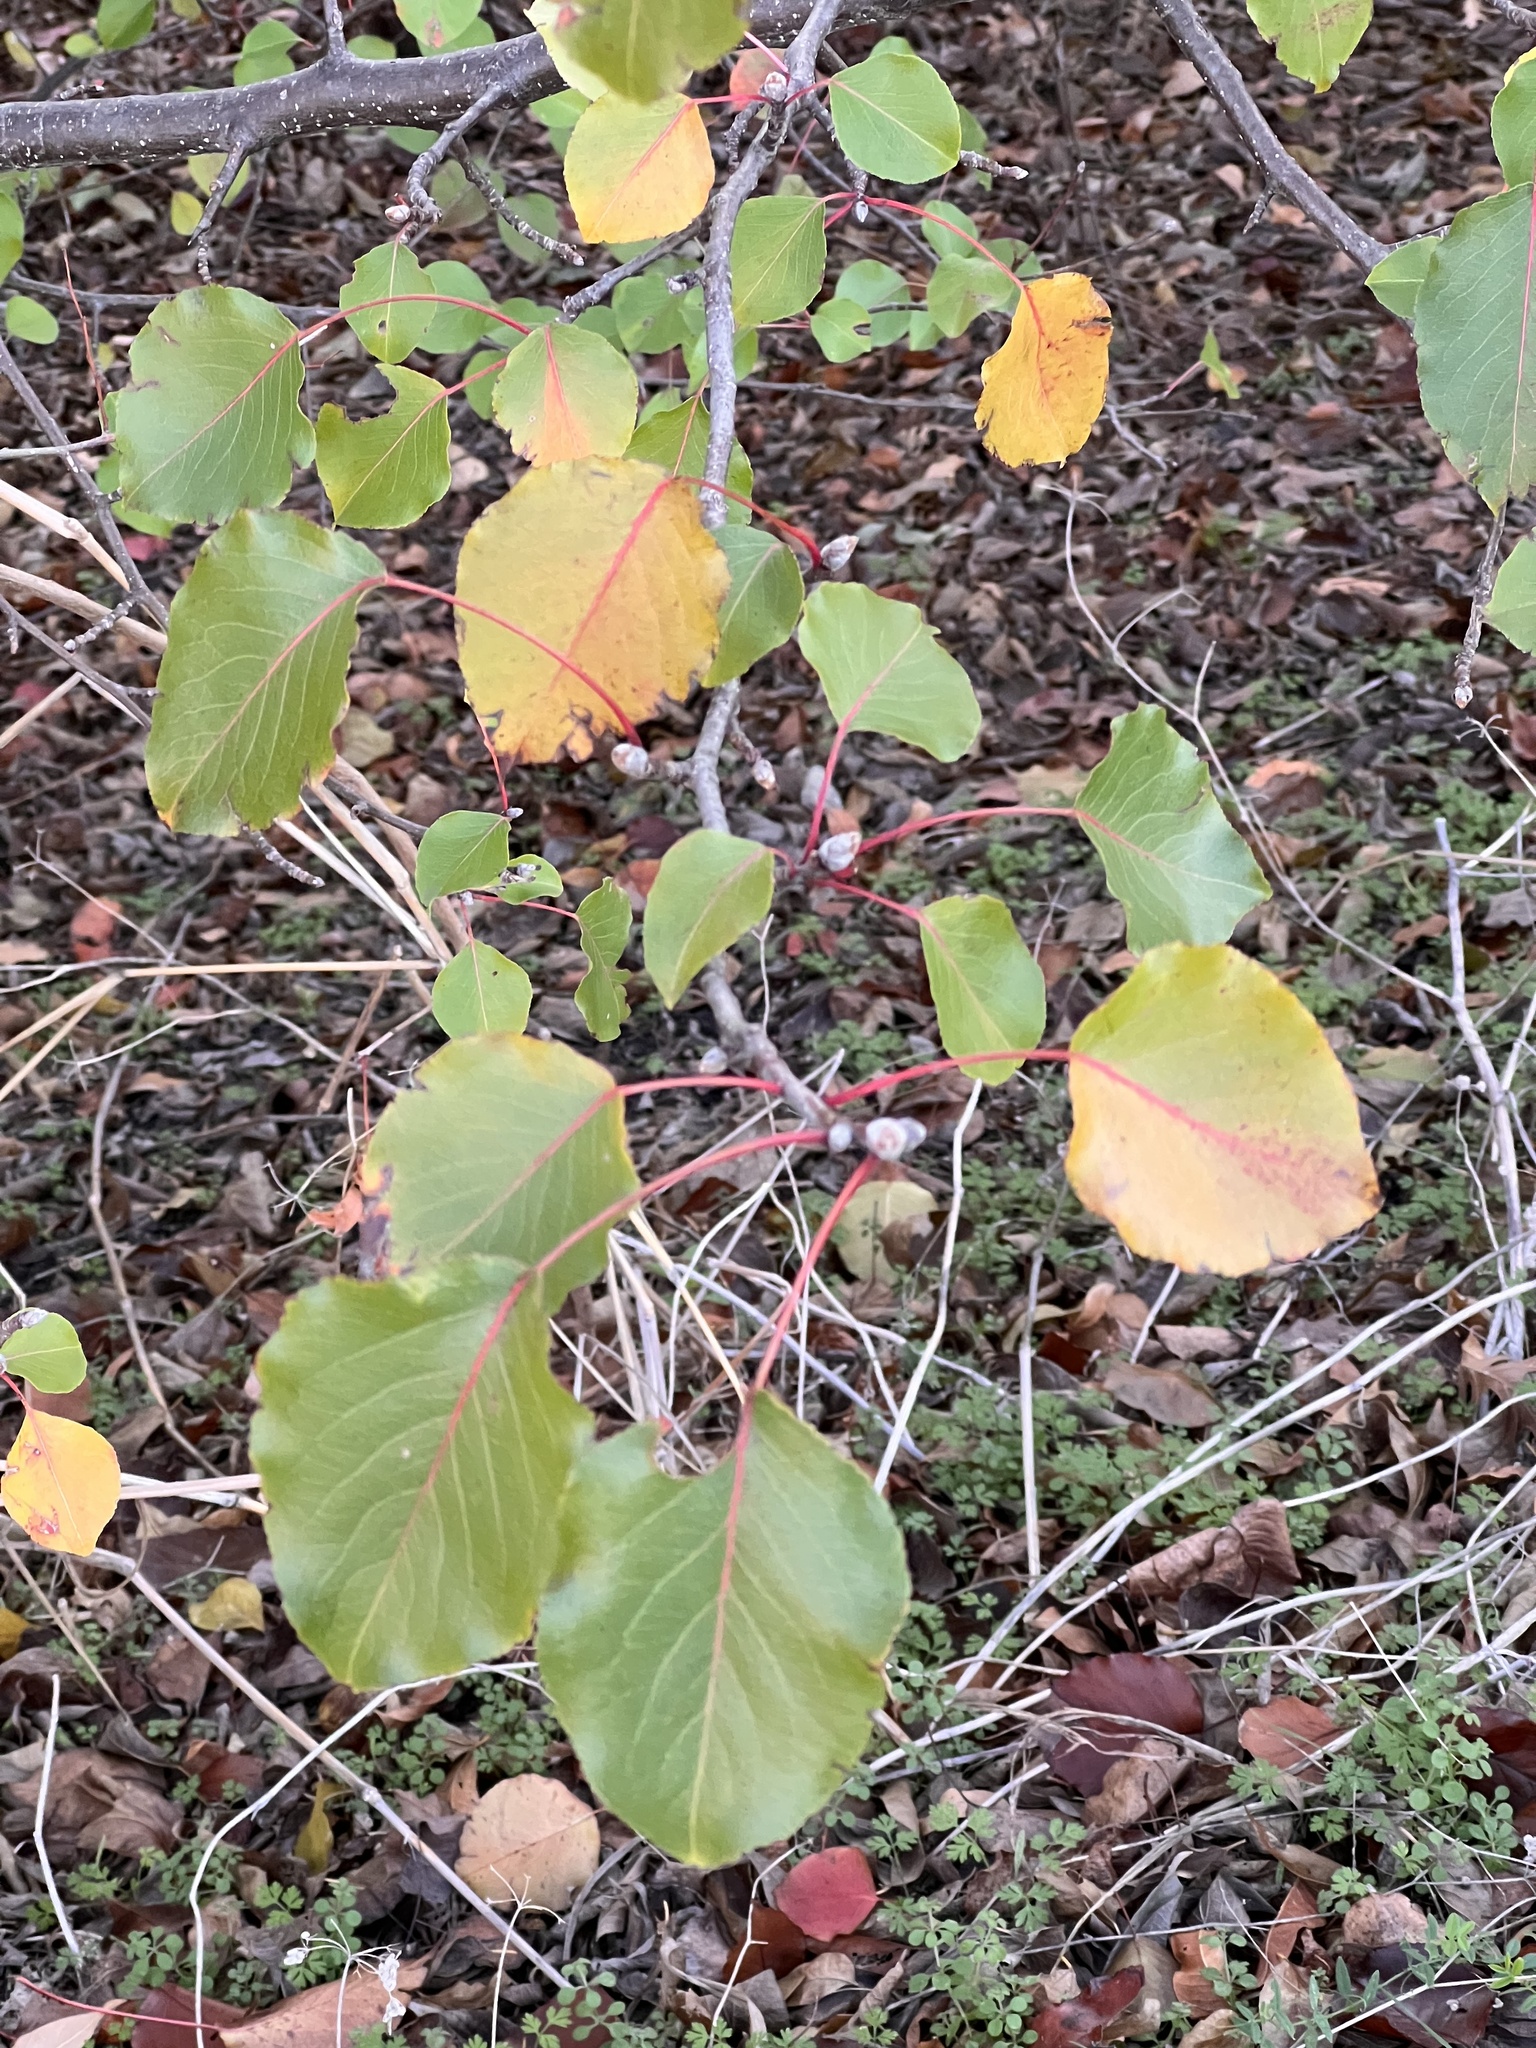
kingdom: Plantae
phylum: Tracheophyta
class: Magnoliopsida
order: Rosales
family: Rosaceae
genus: Pyrus
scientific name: Pyrus calleryana
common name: Callery pear
